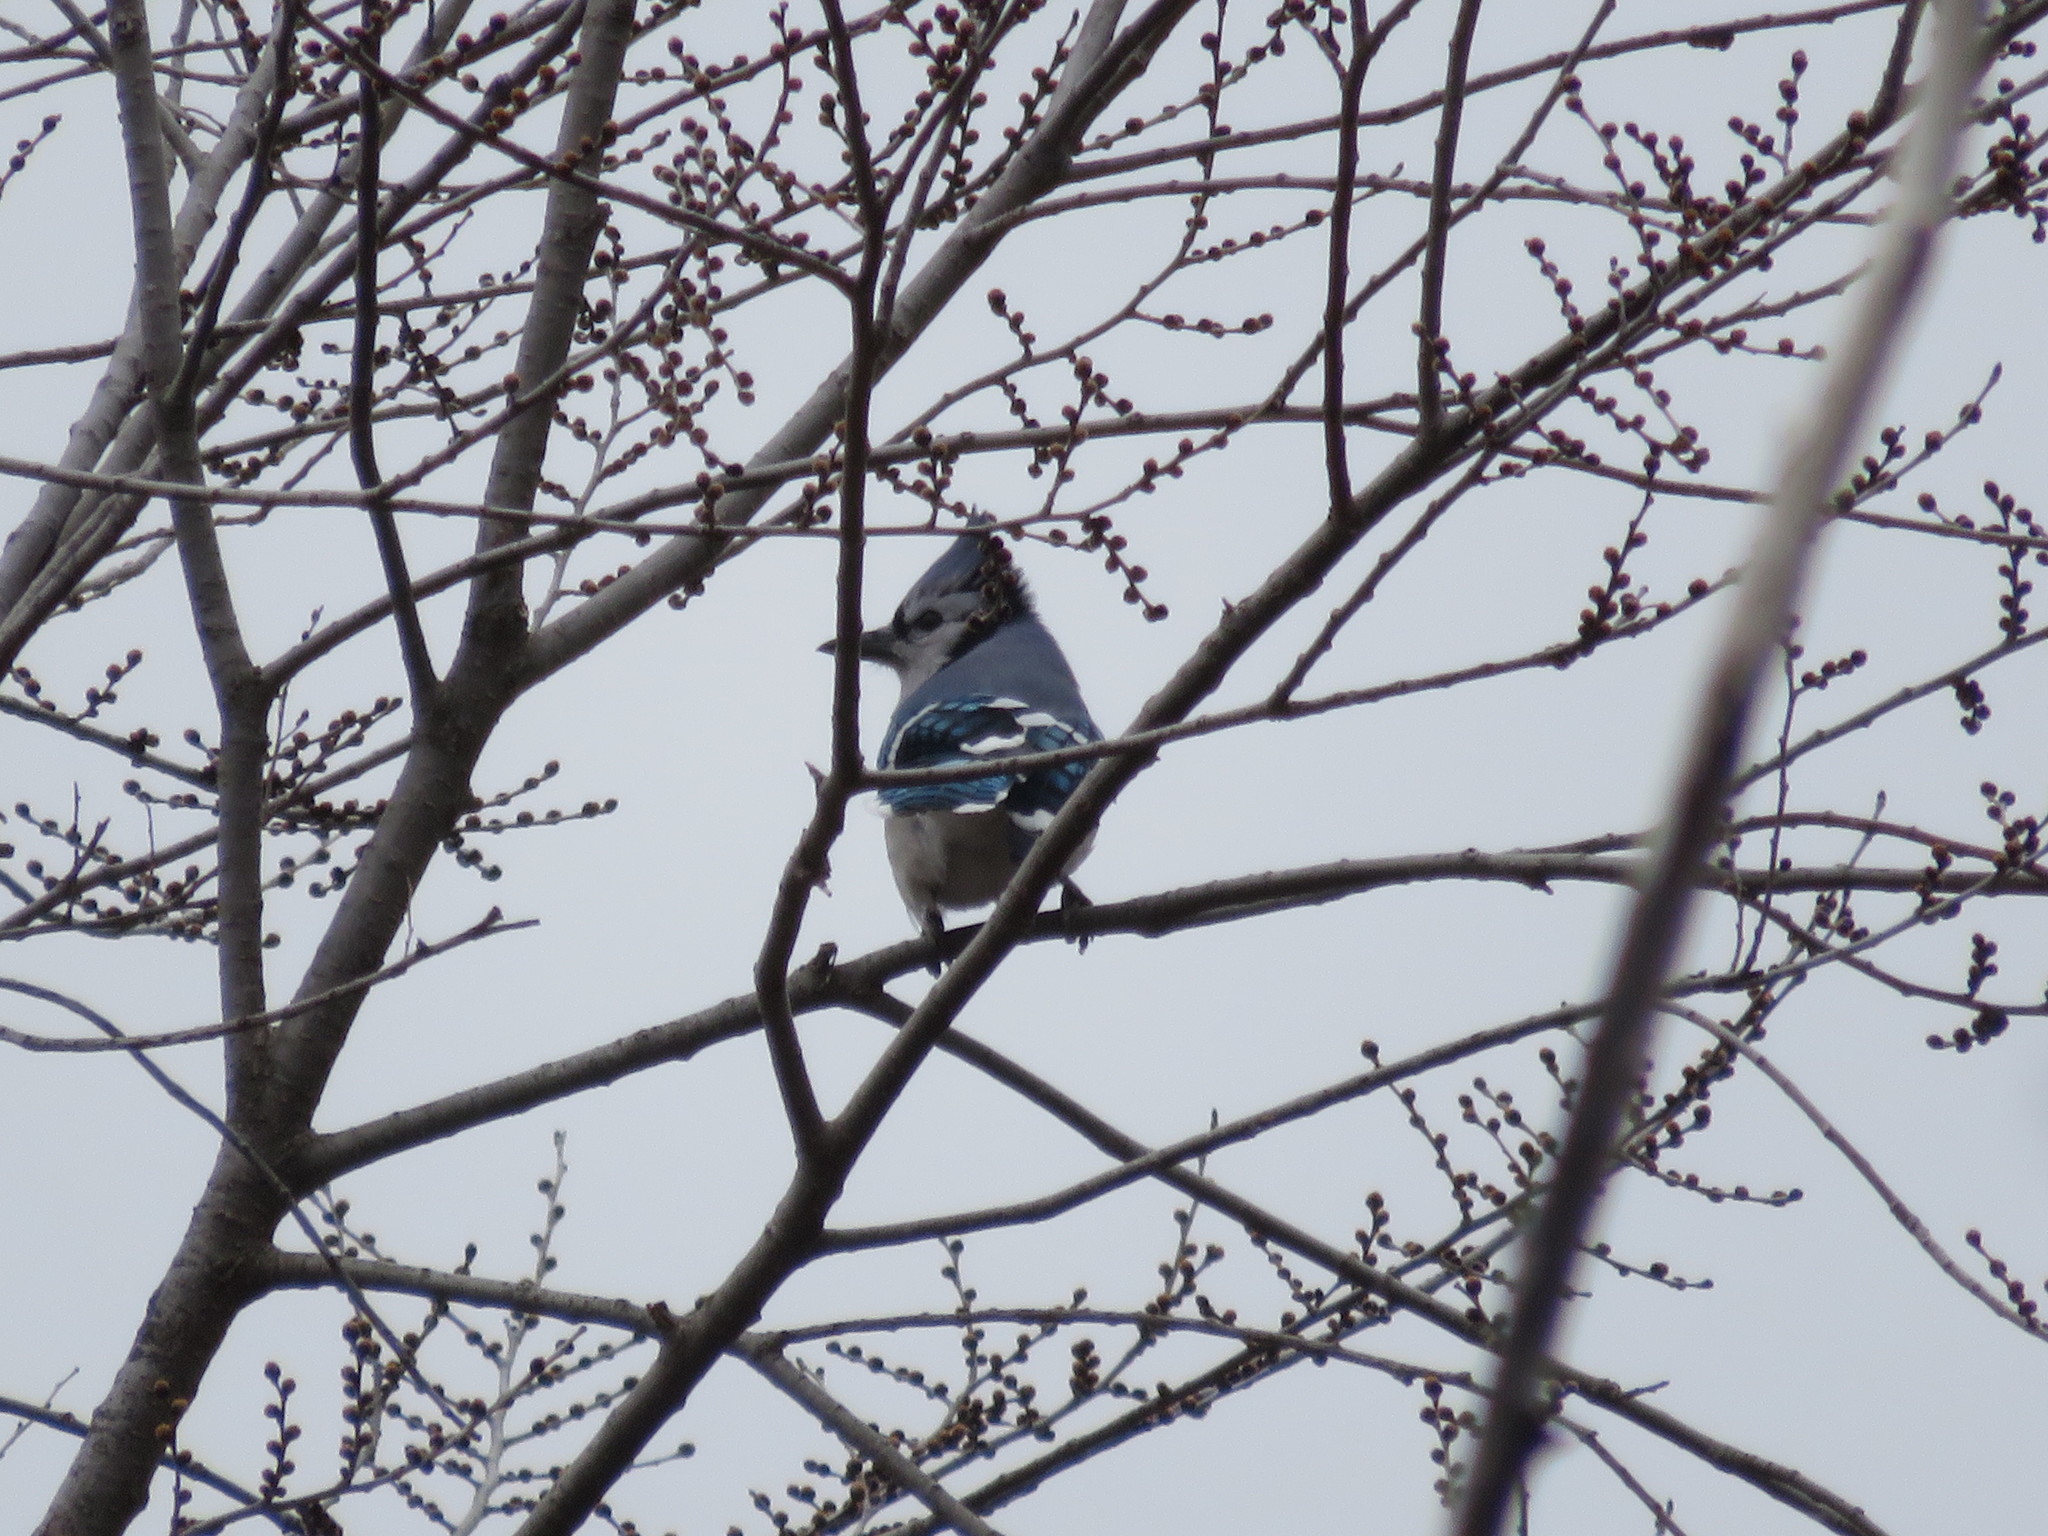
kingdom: Animalia
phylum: Chordata
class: Aves
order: Passeriformes
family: Corvidae
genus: Cyanocitta
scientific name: Cyanocitta cristata
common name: Blue jay
